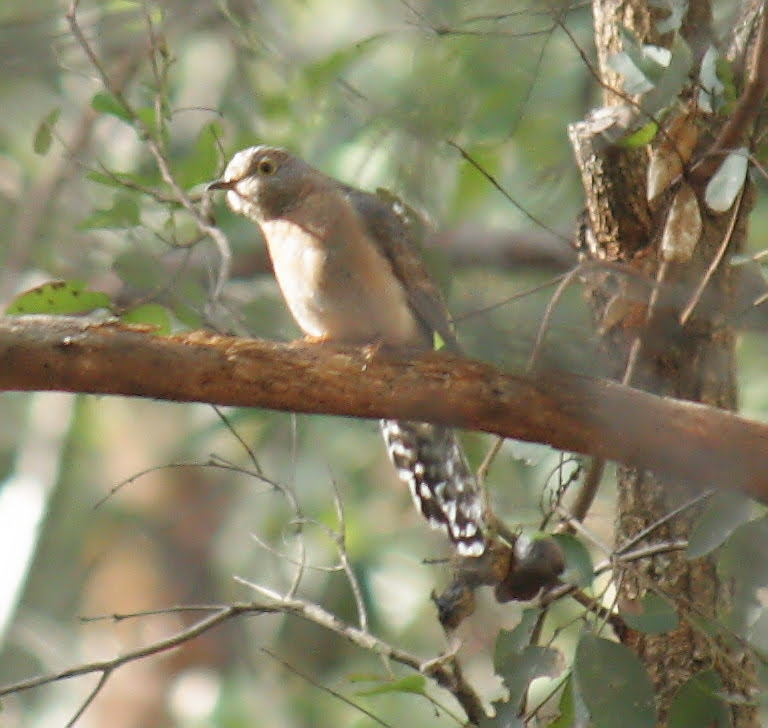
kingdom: Animalia
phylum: Chordata
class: Aves
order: Cuculiformes
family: Cuculidae
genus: Cacomantis
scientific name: Cacomantis flabelliformis
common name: Fan-tailed cuckoo
